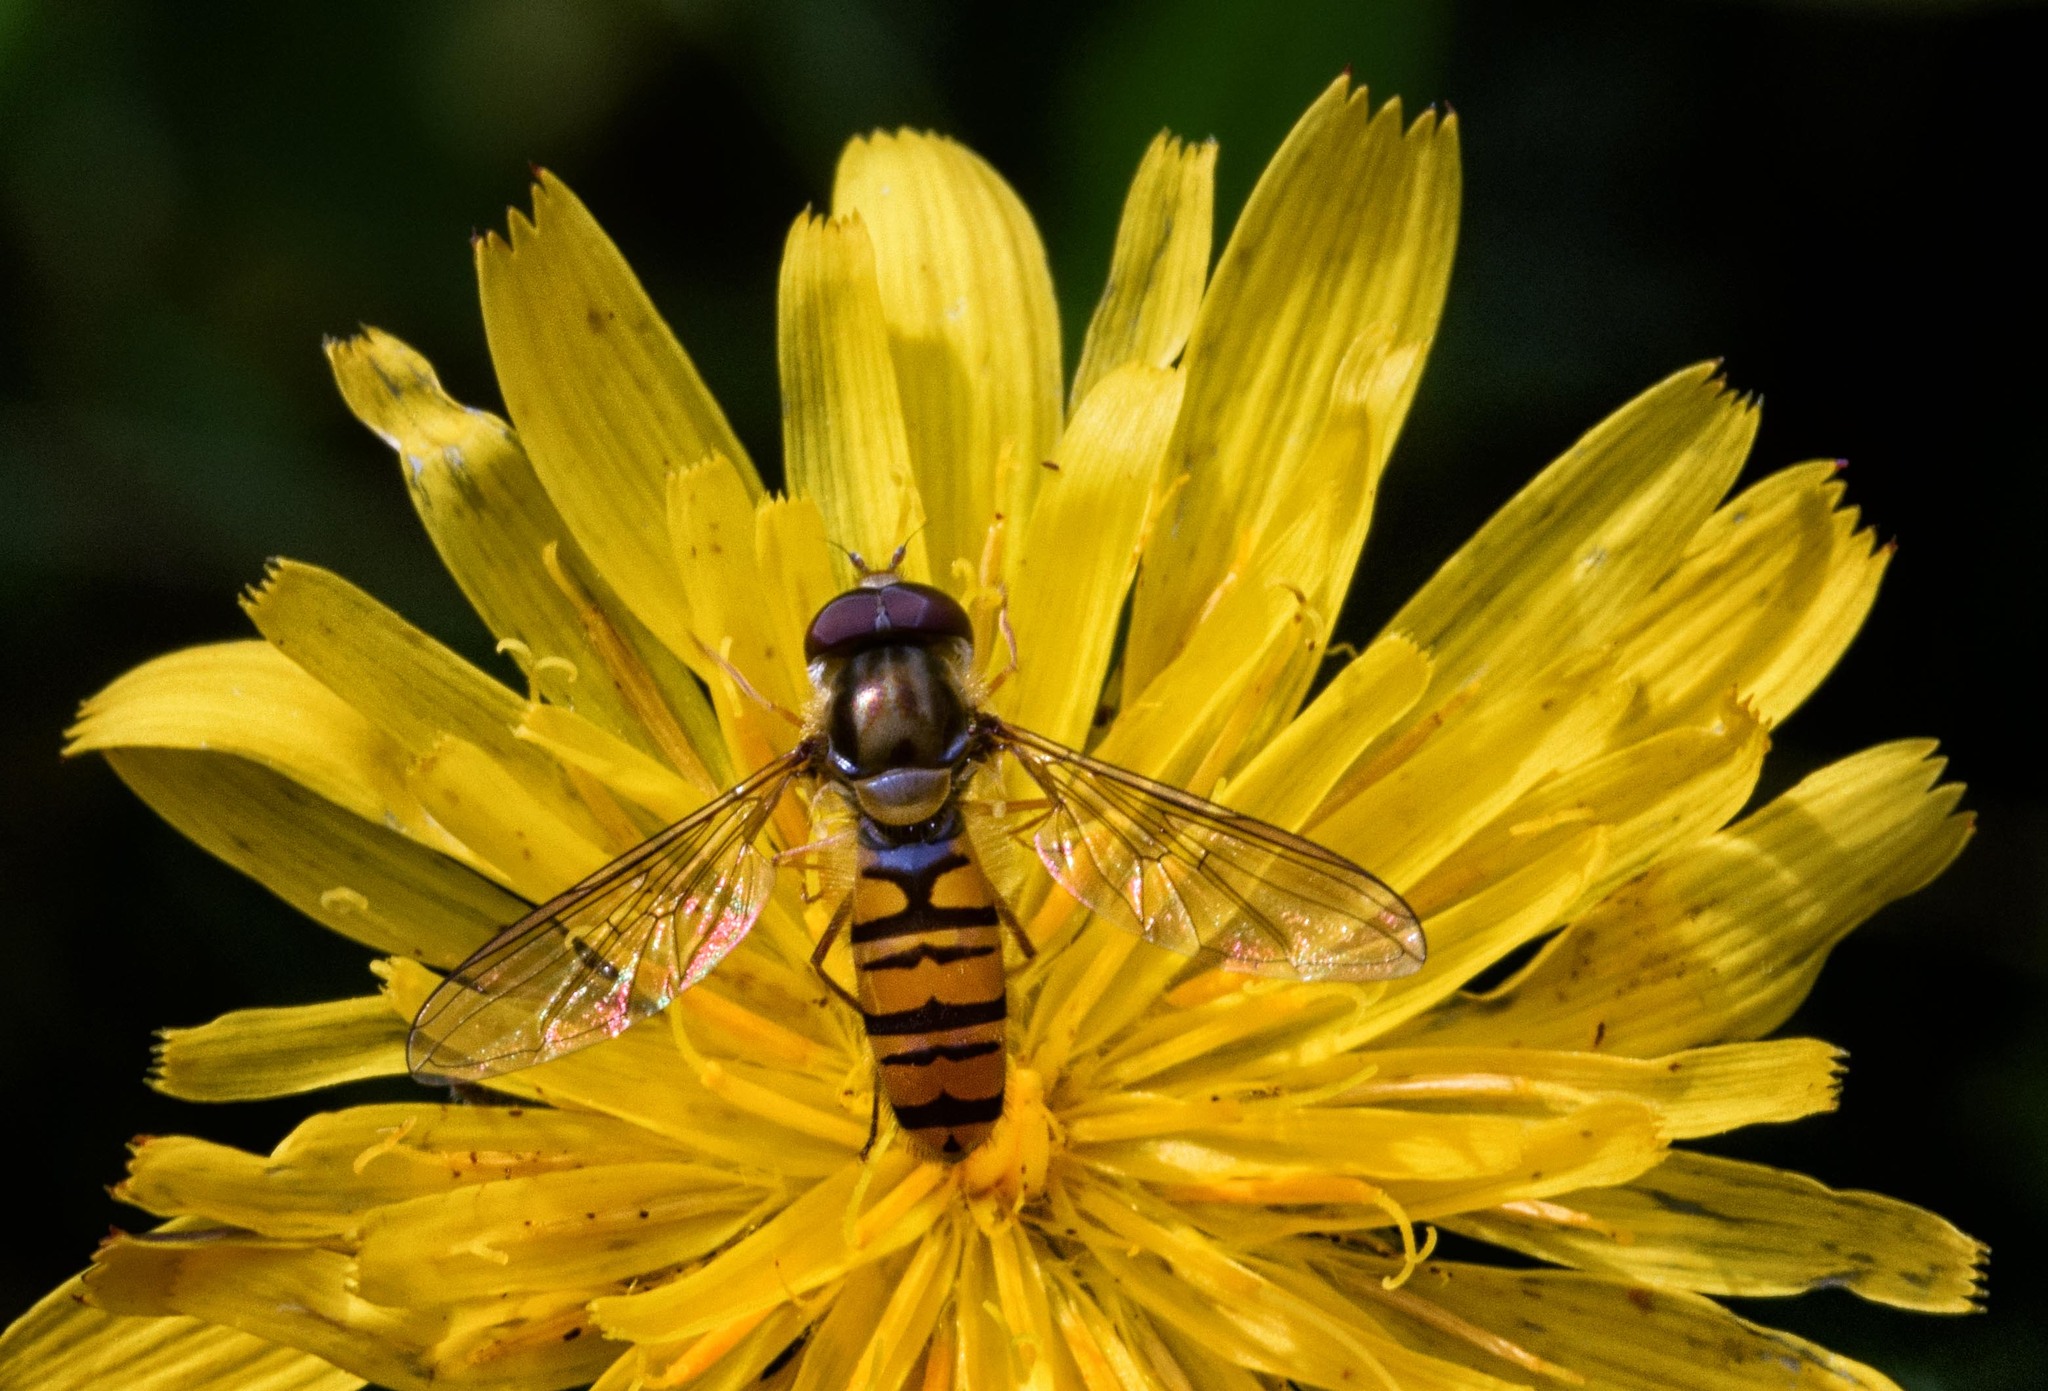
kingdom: Animalia
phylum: Arthropoda
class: Insecta
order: Diptera
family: Syrphidae
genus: Episyrphus
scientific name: Episyrphus balteatus
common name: Marmalade hoverfly
